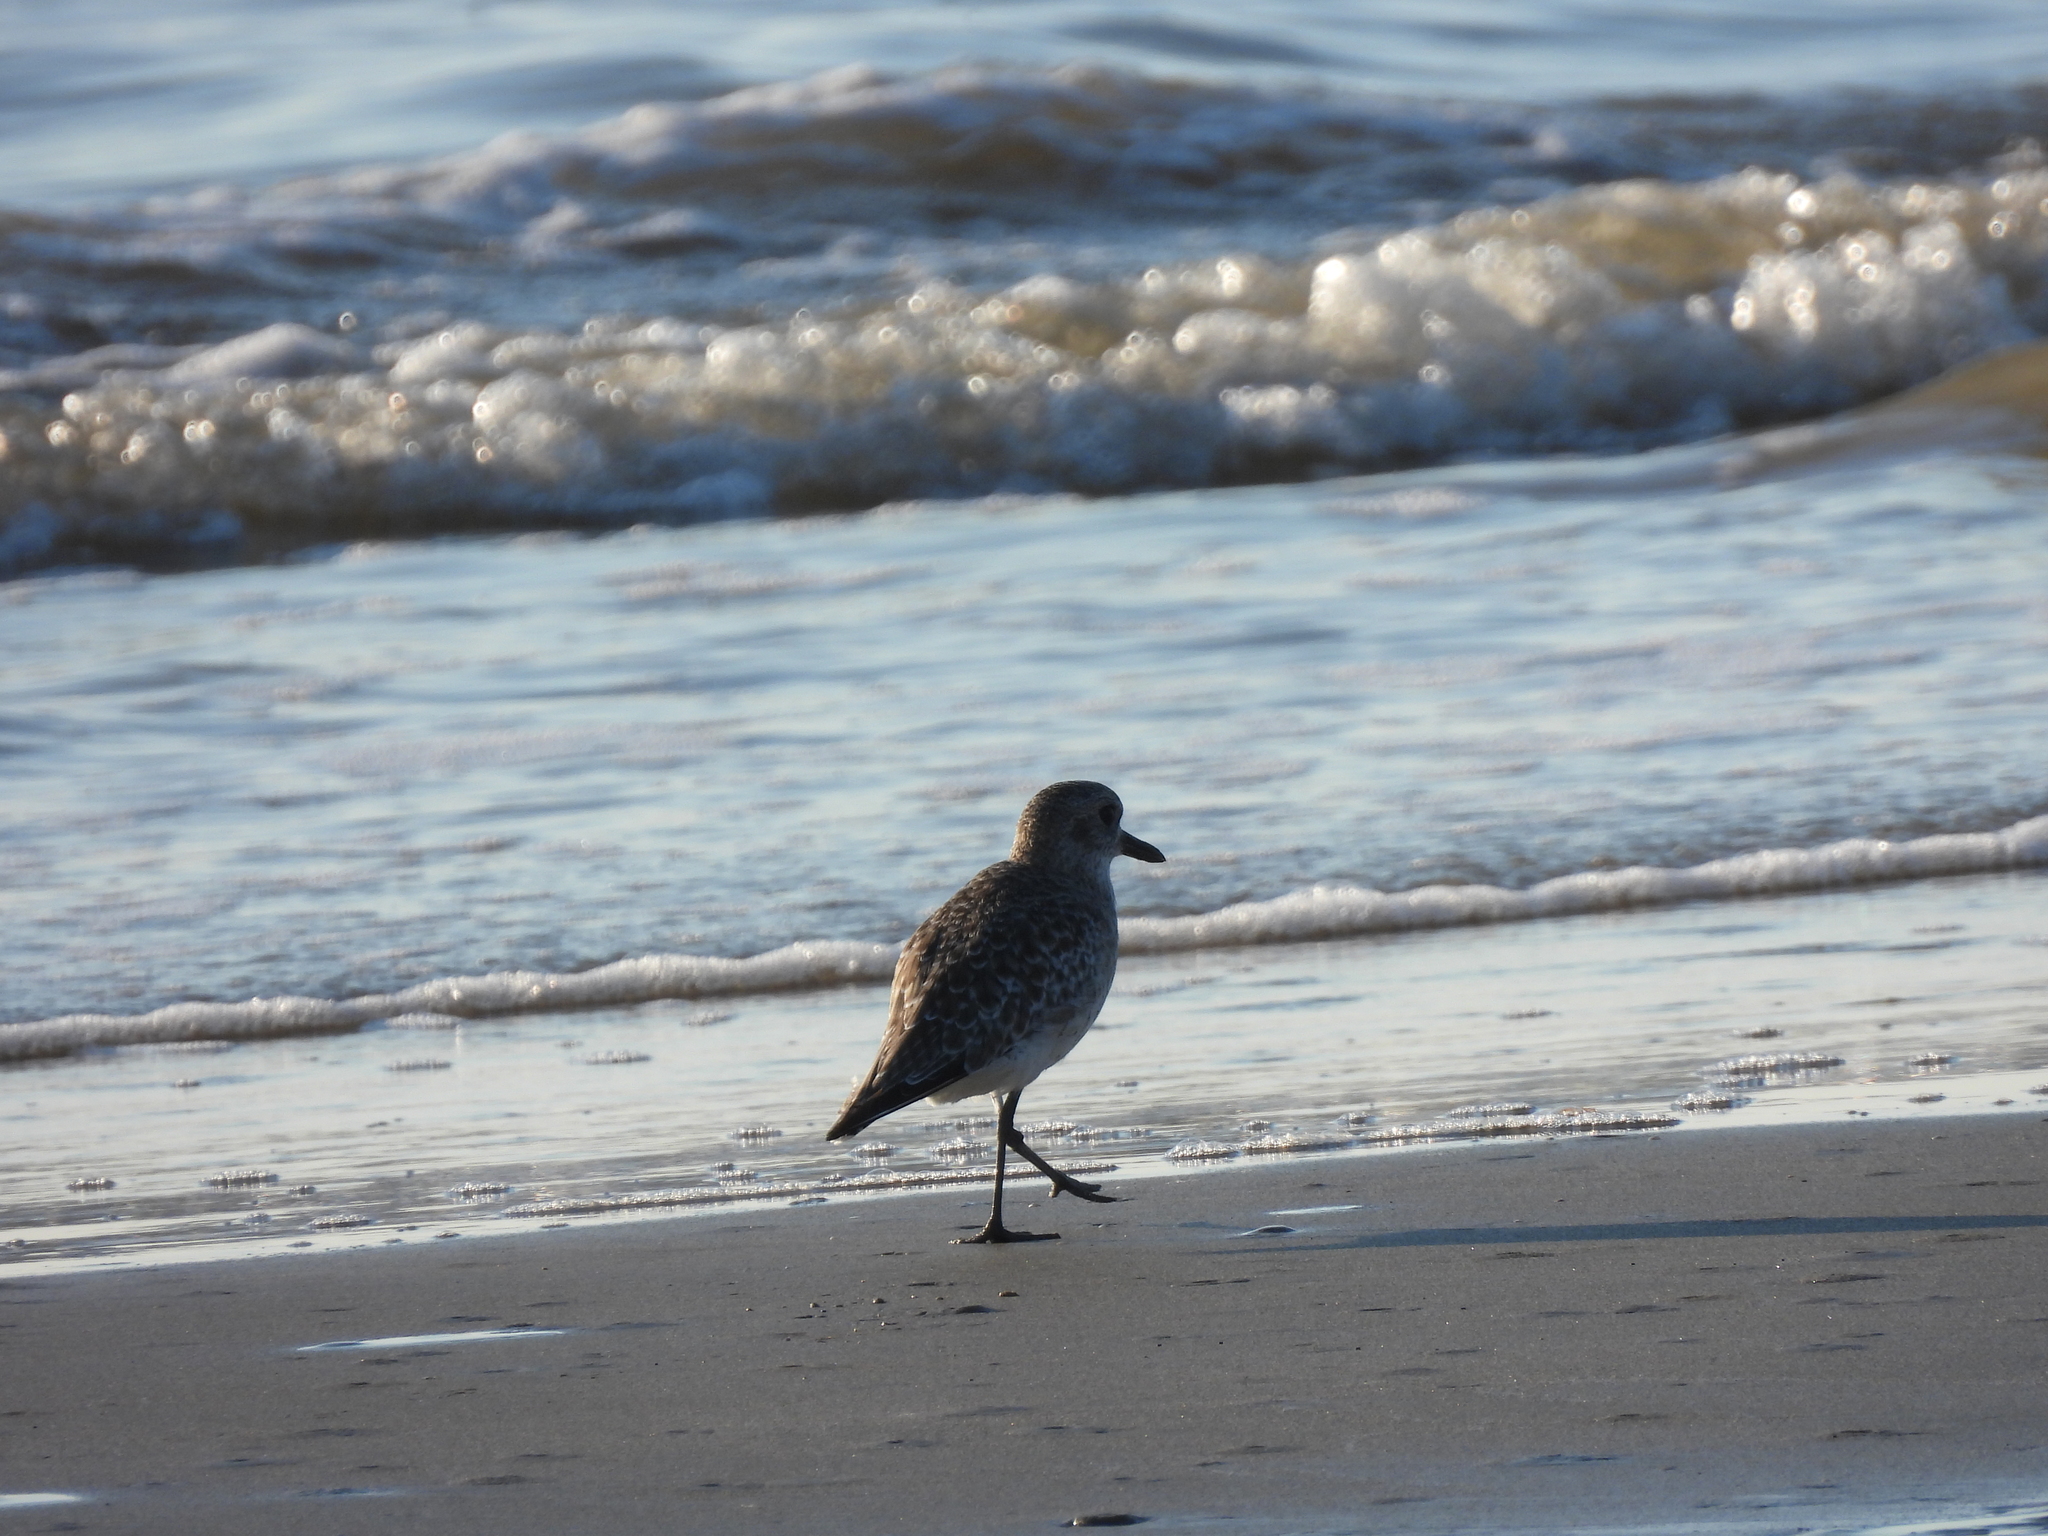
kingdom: Animalia
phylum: Chordata
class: Aves
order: Charadriiformes
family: Charadriidae
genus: Pluvialis
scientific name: Pluvialis squatarola
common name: Grey plover
